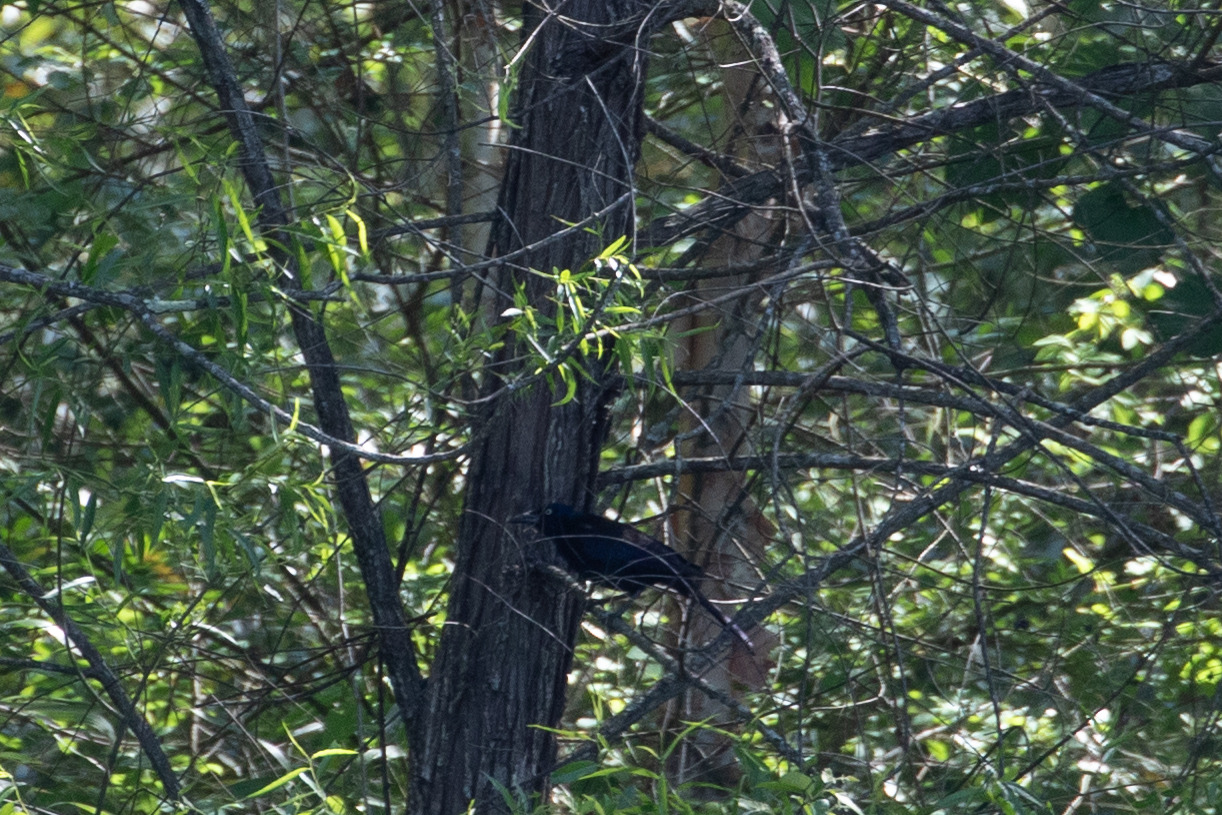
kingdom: Animalia
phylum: Chordata
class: Aves
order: Passeriformes
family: Icteridae
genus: Quiscalus
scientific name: Quiscalus quiscula
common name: Common grackle
